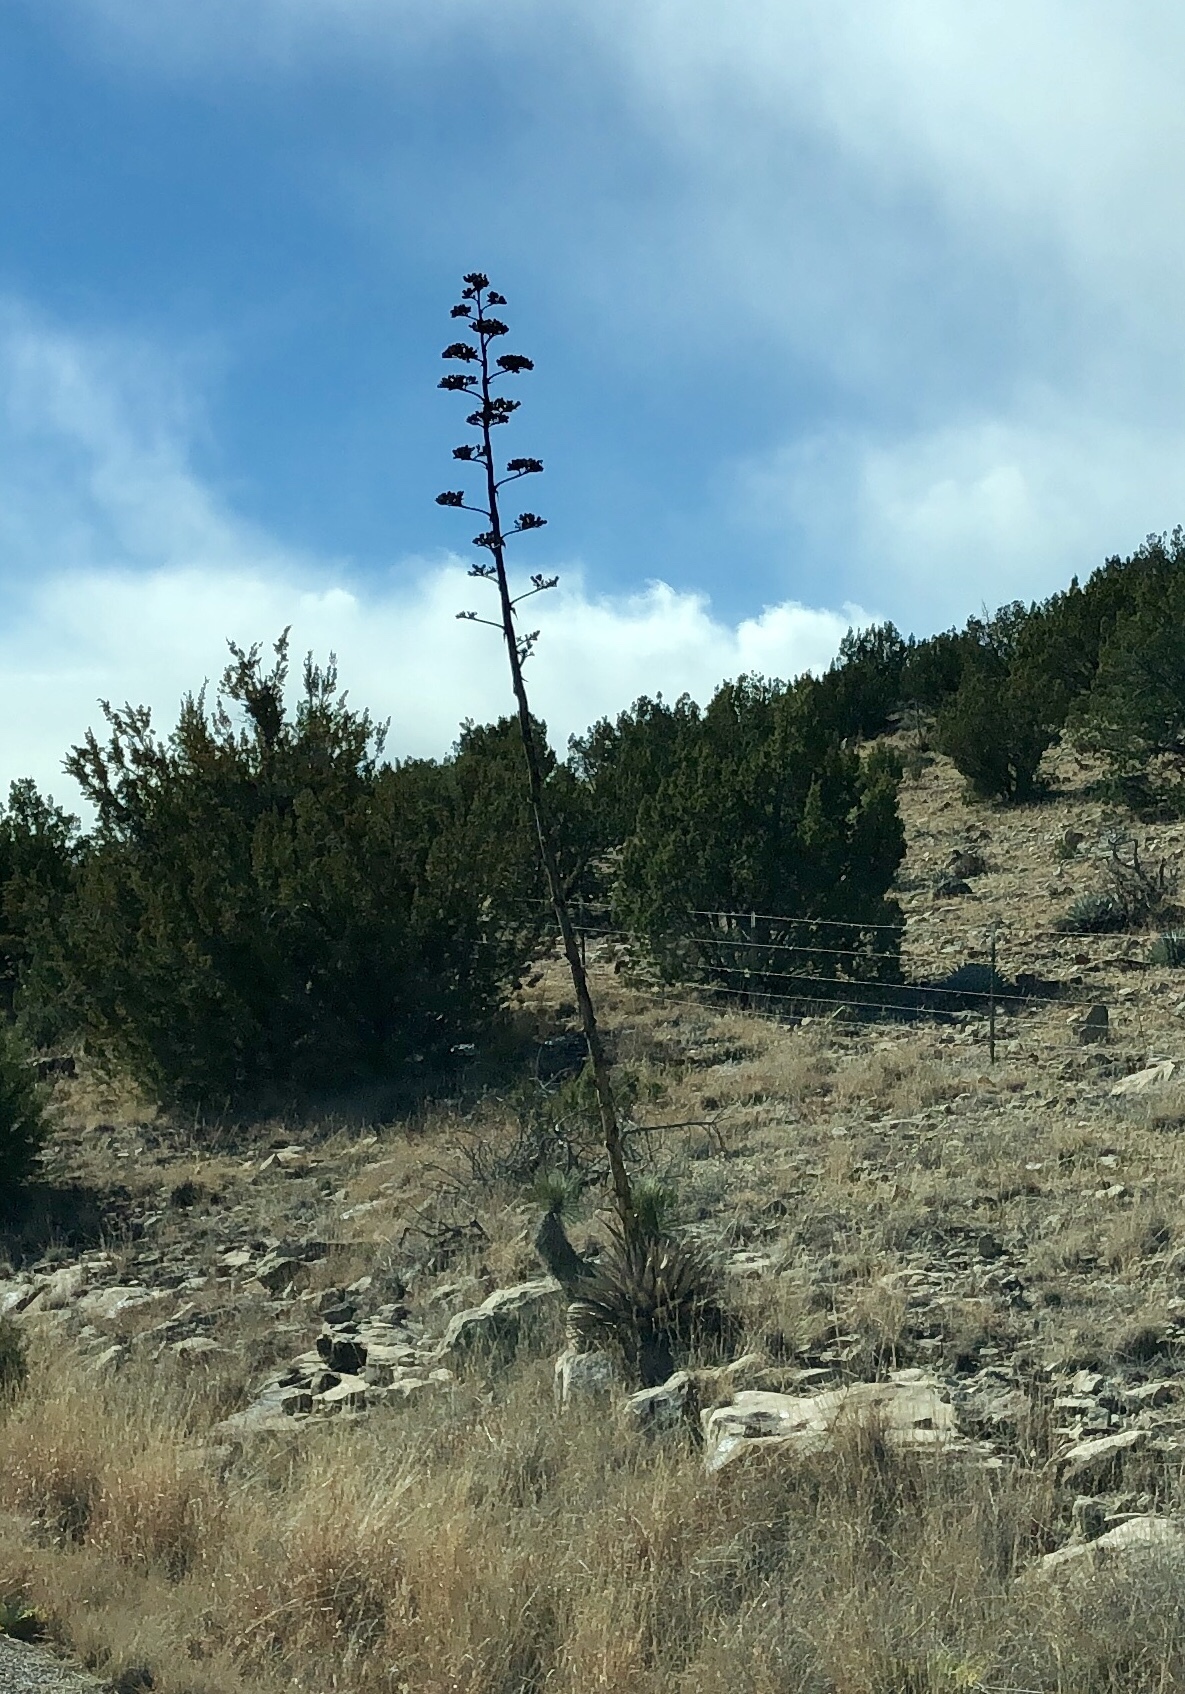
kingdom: Plantae
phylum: Tracheophyta
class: Liliopsida
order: Asparagales
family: Asparagaceae
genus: Agave
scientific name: Agave parryi
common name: Parry's agave
